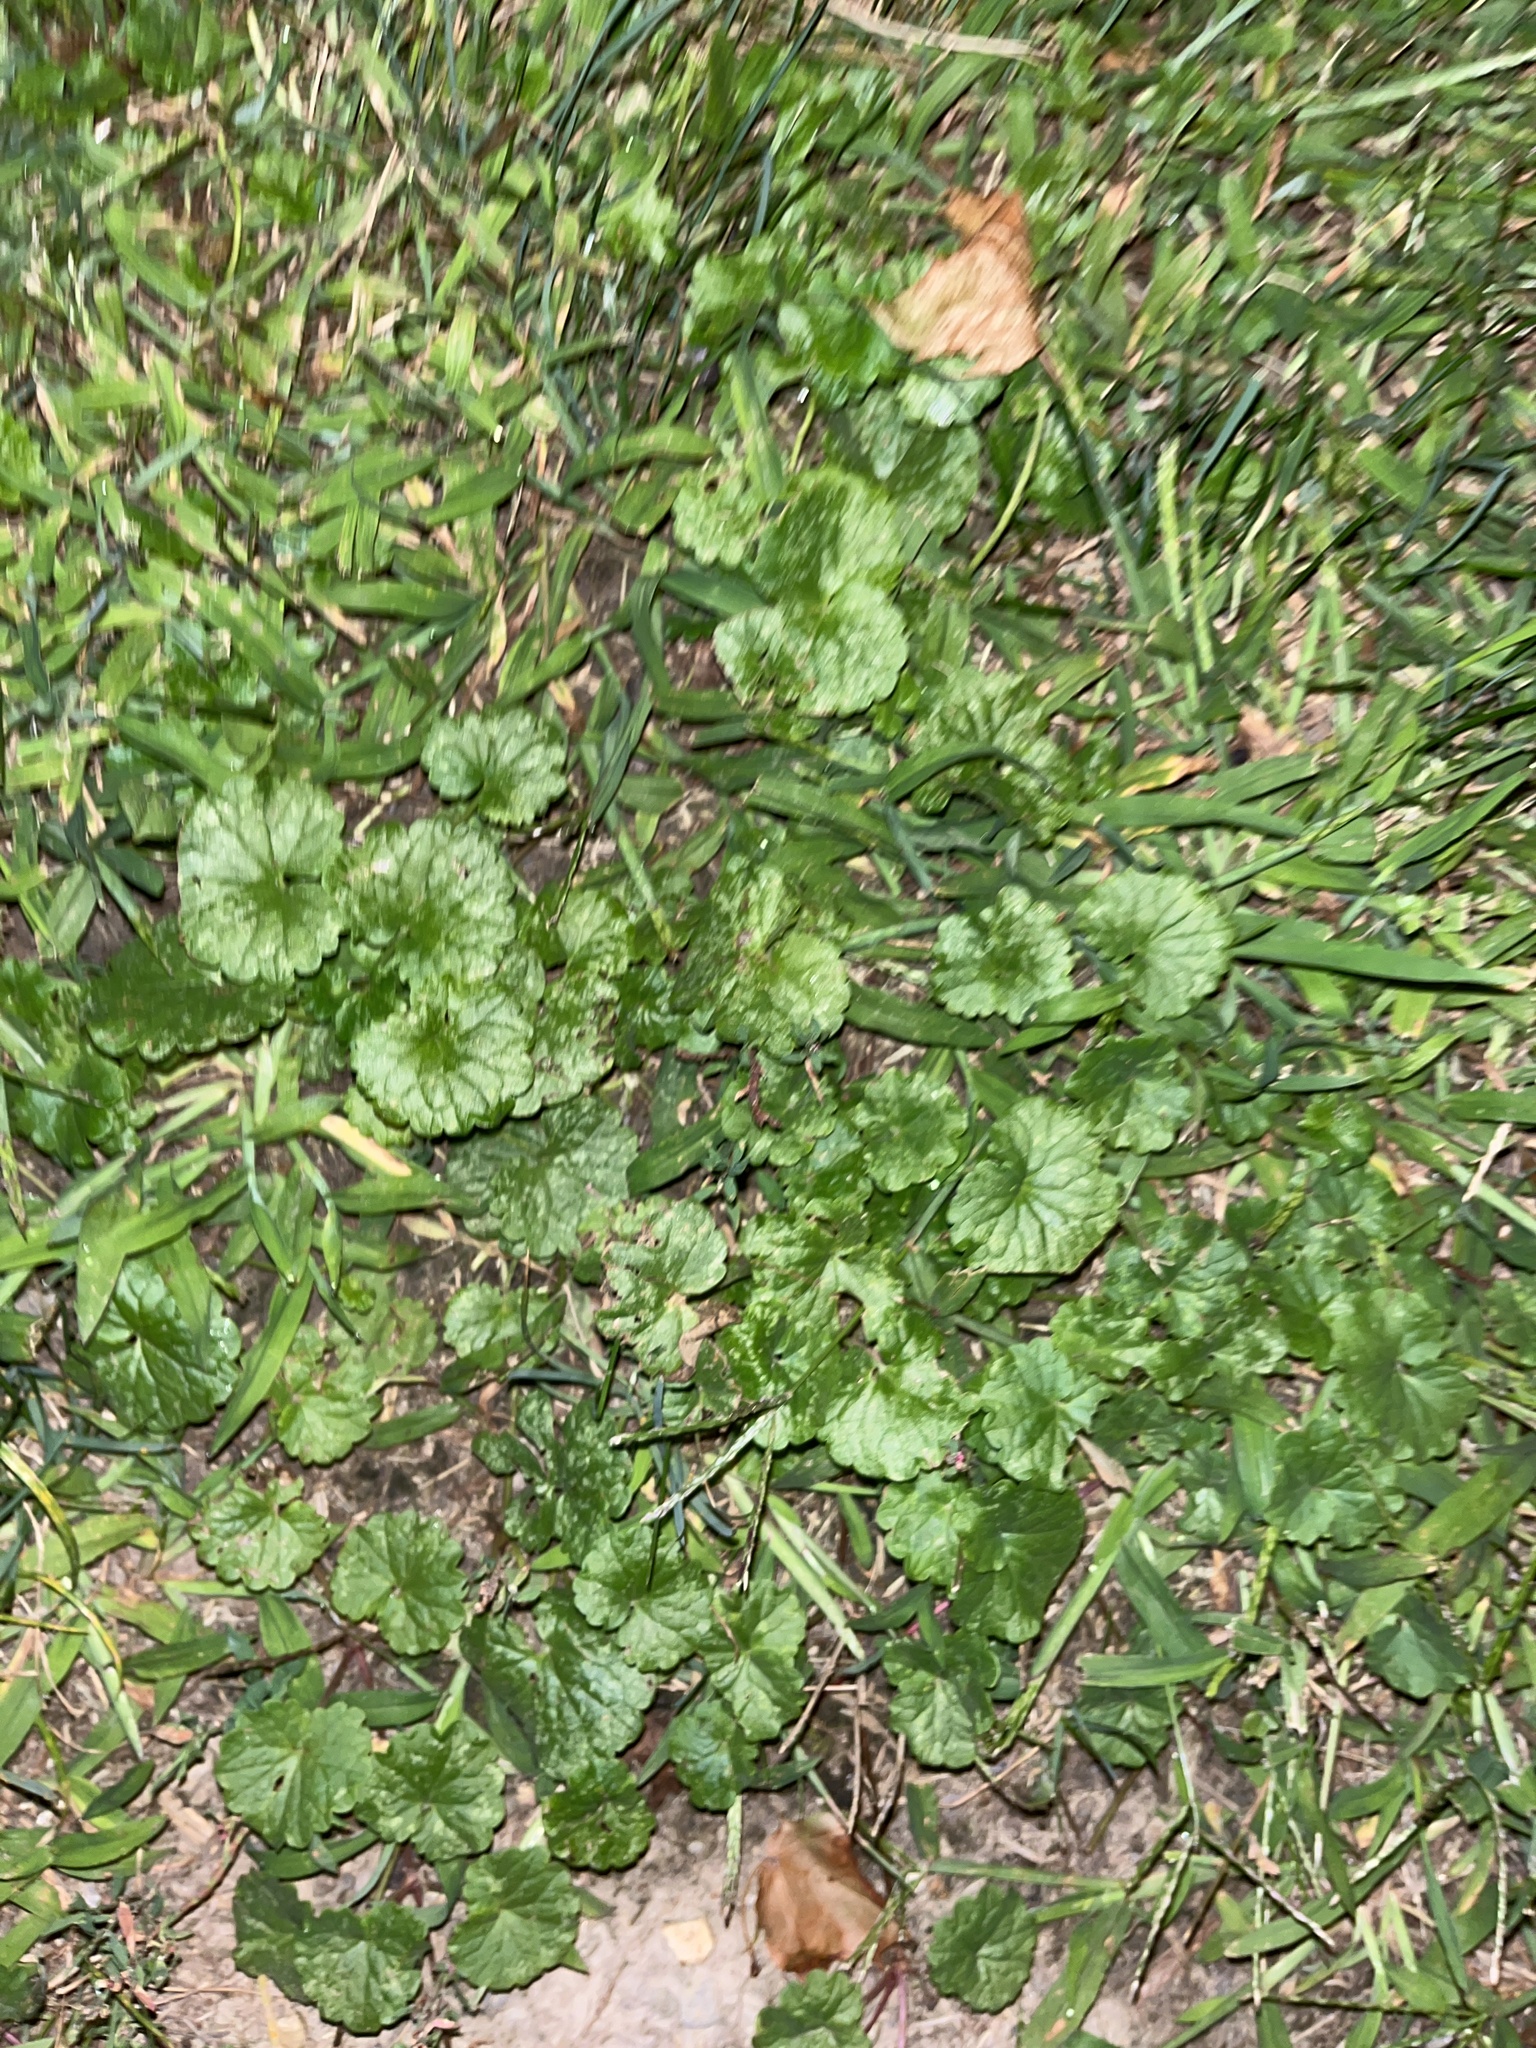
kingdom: Plantae
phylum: Tracheophyta
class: Magnoliopsida
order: Lamiales
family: Lamiaceae
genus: Glechoma
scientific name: Glechoma hederacea
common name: Ground ivy
